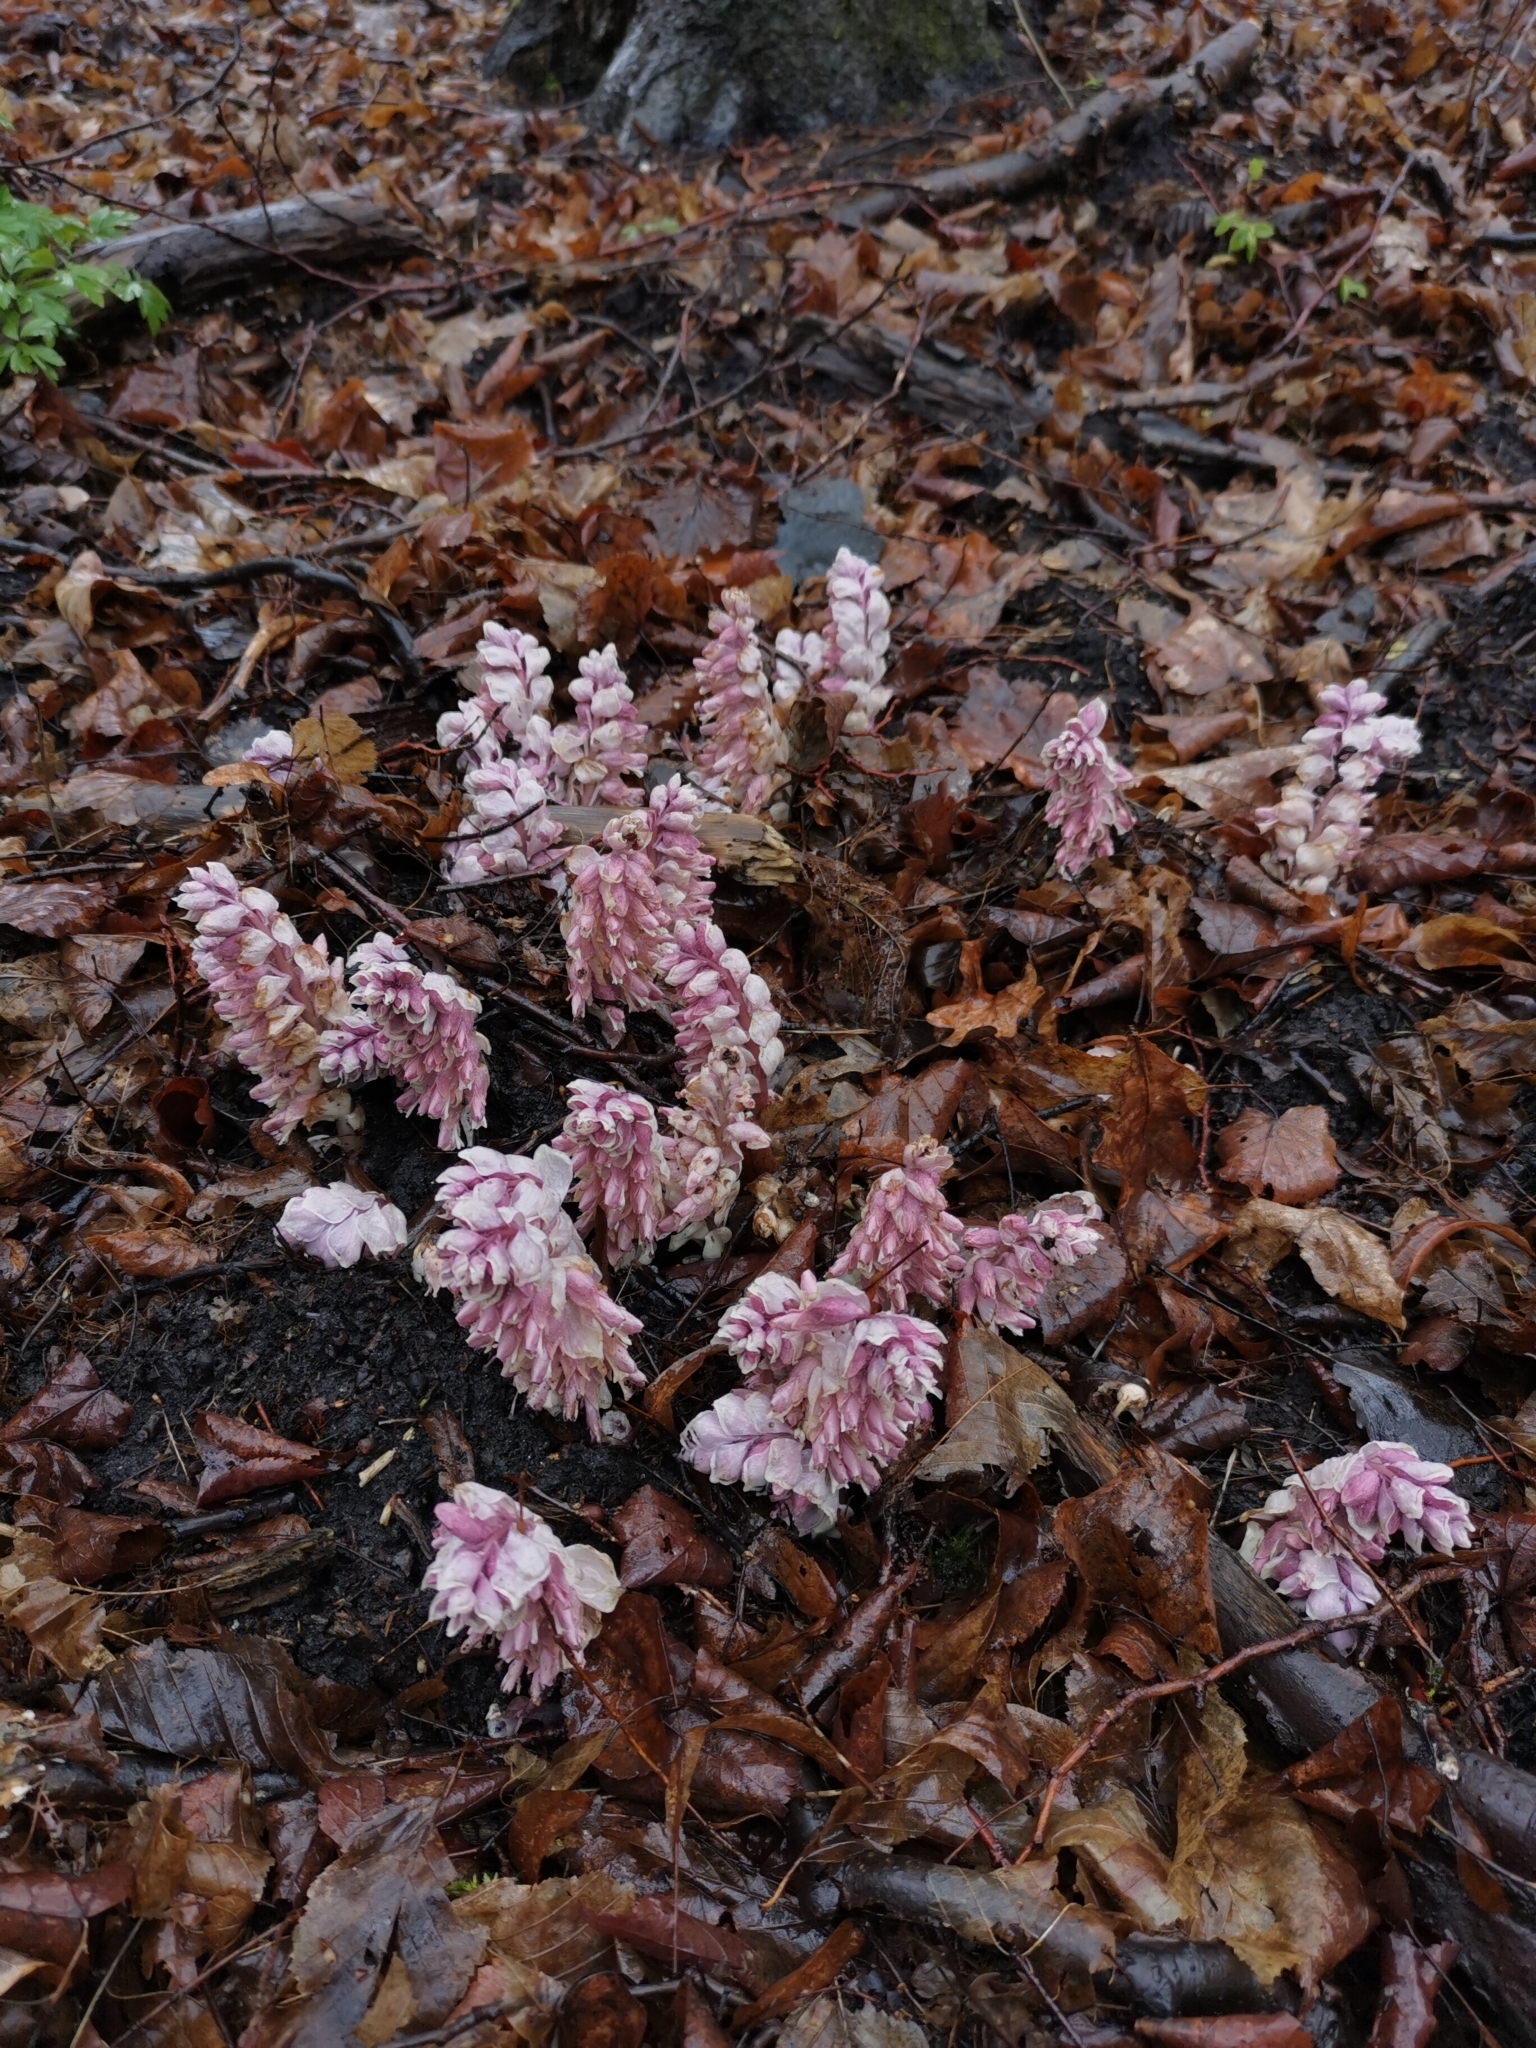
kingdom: Plantae
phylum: Tracheophyta
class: Magnoliopsida
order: Lamiales
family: Orobanchaceae
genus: Lathraea
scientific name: Lathraea squamaria
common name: Toothwort
